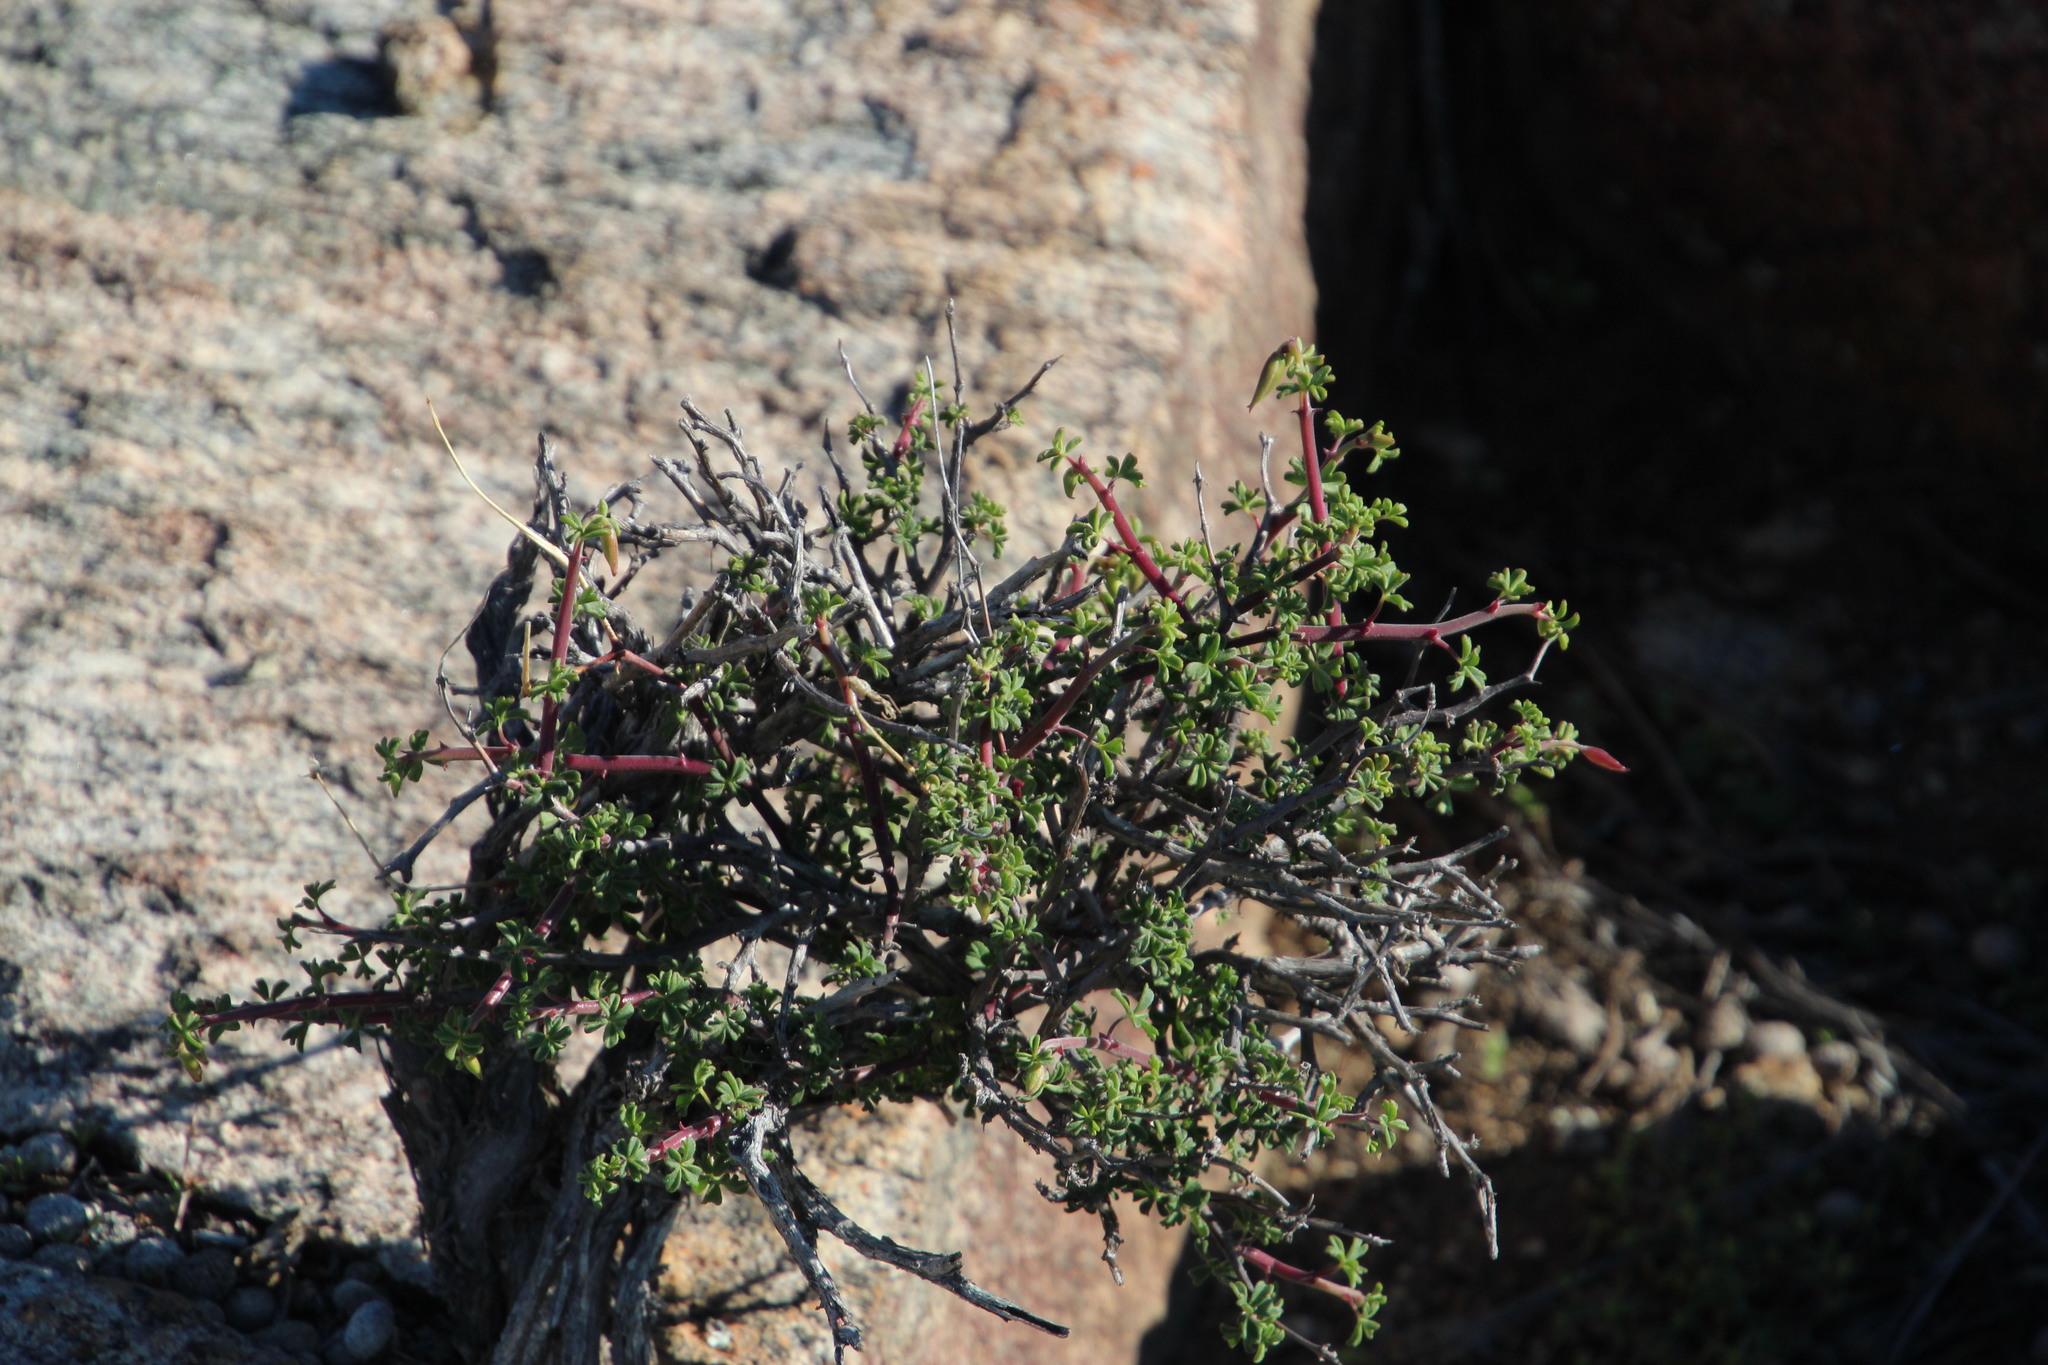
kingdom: Plantae
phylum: Tracheophyta
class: Magnoliopsida
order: Geraniales
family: Geraniaceae
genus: Pelargonium
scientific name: Pelargonium praemorsum
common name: Quinate-leaf pelargonium
